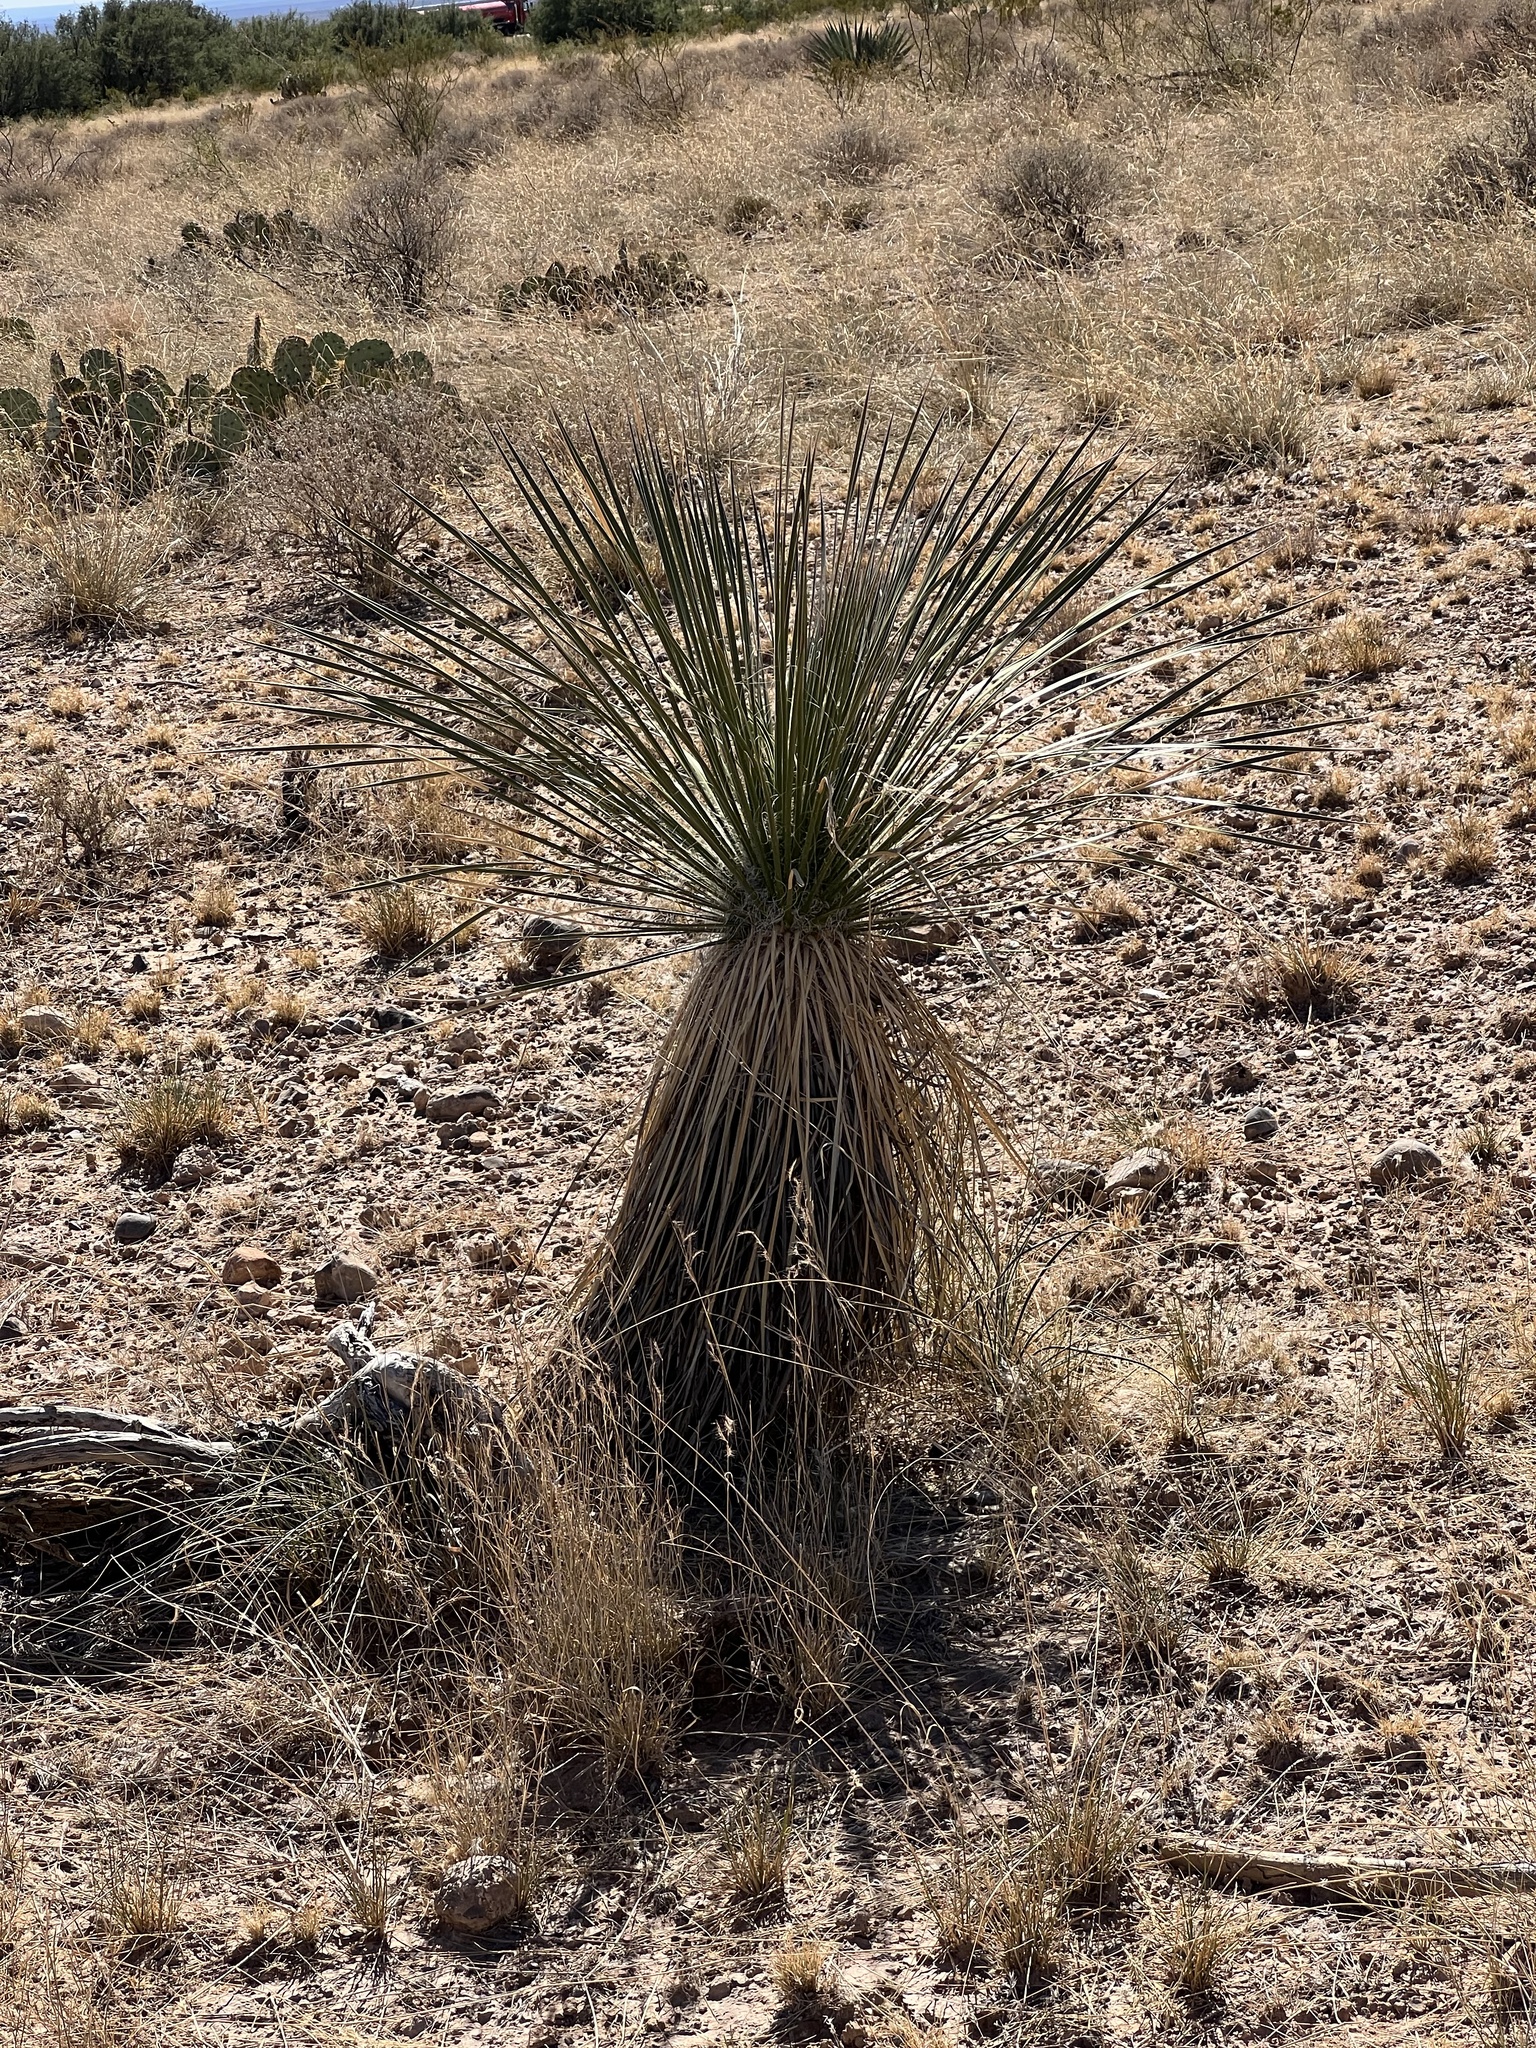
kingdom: Plantae
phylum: Tracheophyta
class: Liliopsida
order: Asparagales
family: Asparagaceae
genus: Yucca
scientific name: Yucca elata
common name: Palmella
